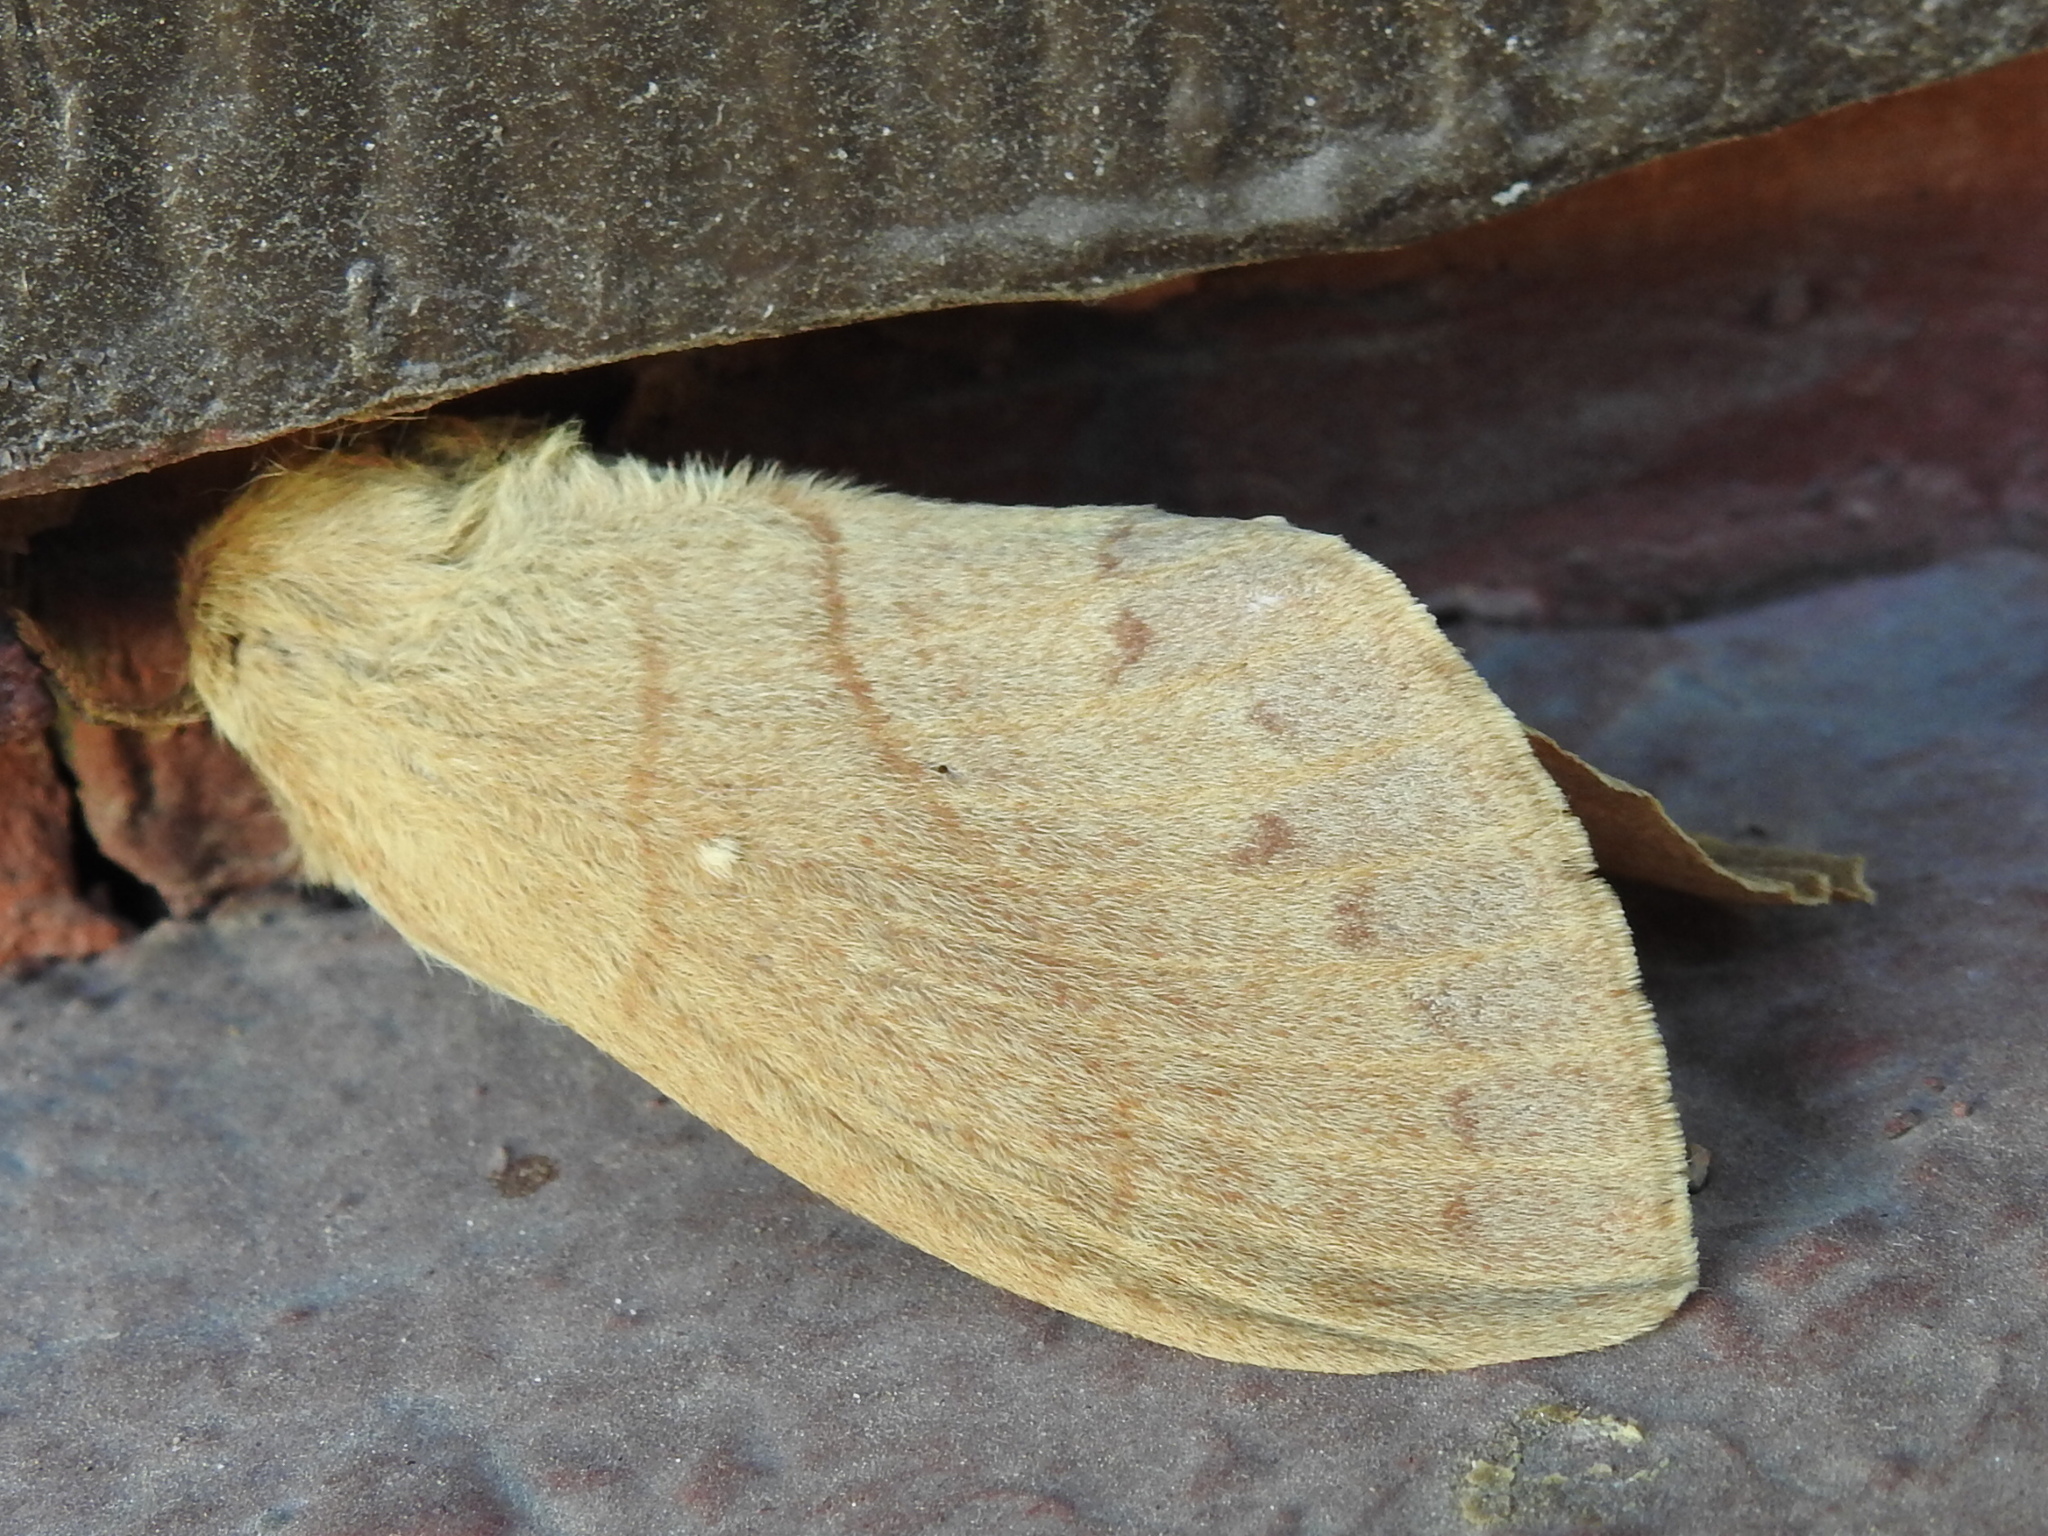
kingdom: Animalia
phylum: Arthropoda
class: Insecta
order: Lepidoptera
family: Lasiocampidae
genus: Dicogaster
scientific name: Dicogaster coronada
